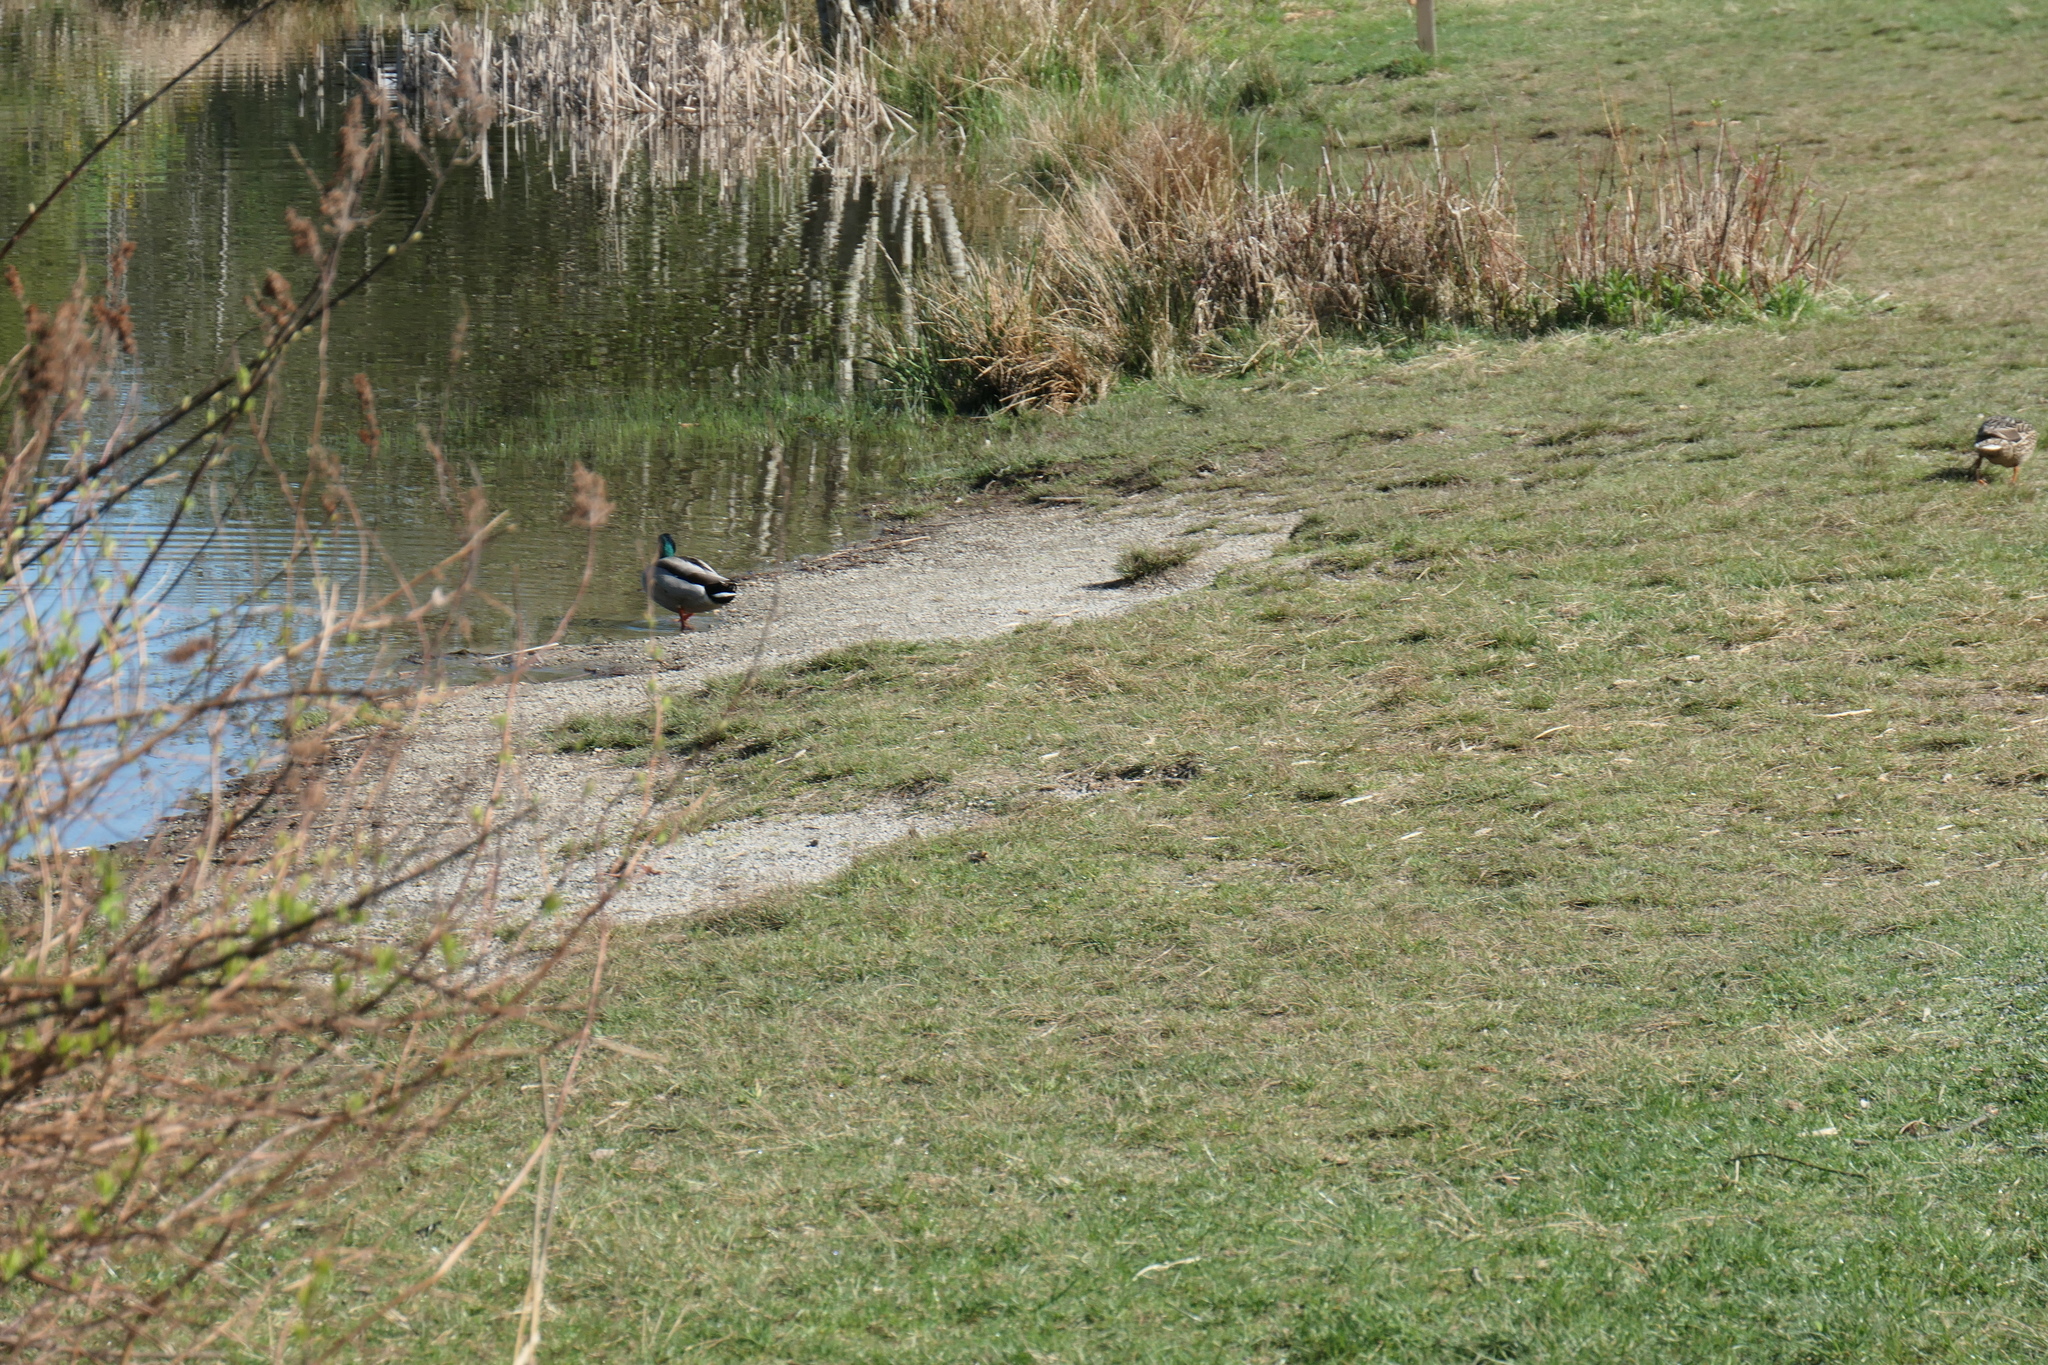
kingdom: Animalia
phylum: Chordata
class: Aves
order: Anseriformes
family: Anatidae
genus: Anas
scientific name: Anas platyrhynchos
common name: Mallard
